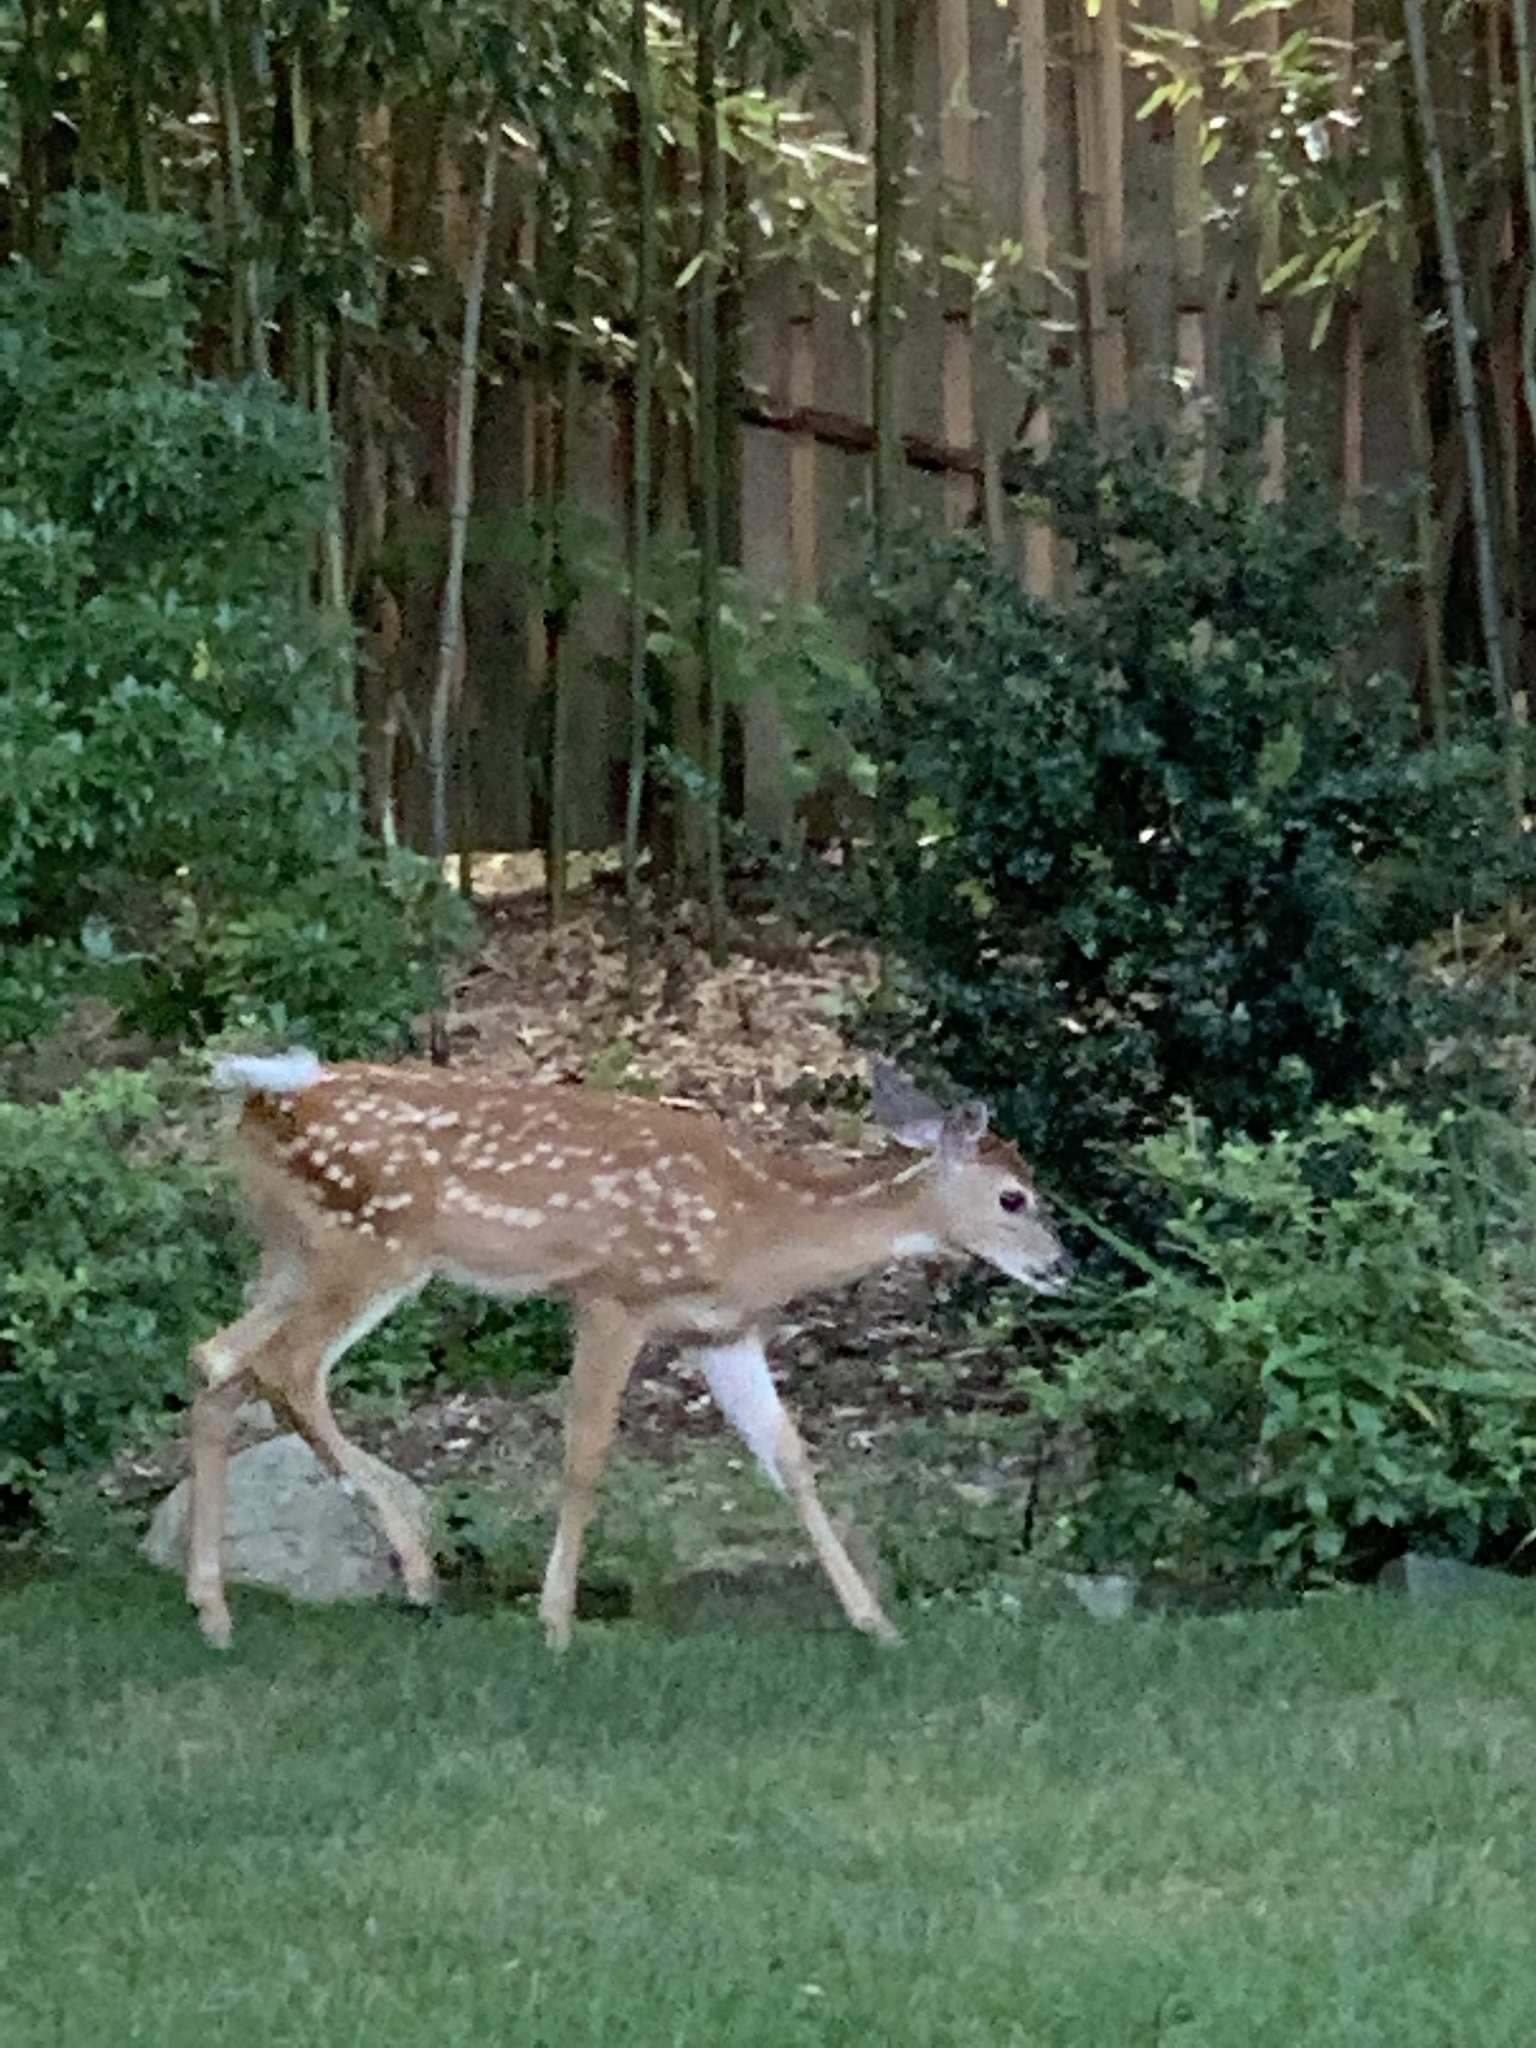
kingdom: Animalia
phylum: Chordata
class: Mammalia
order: Artiodactyla
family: Cervidae
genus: Odocoileus
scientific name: Odocoileus virginianus
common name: White-tailed deer
